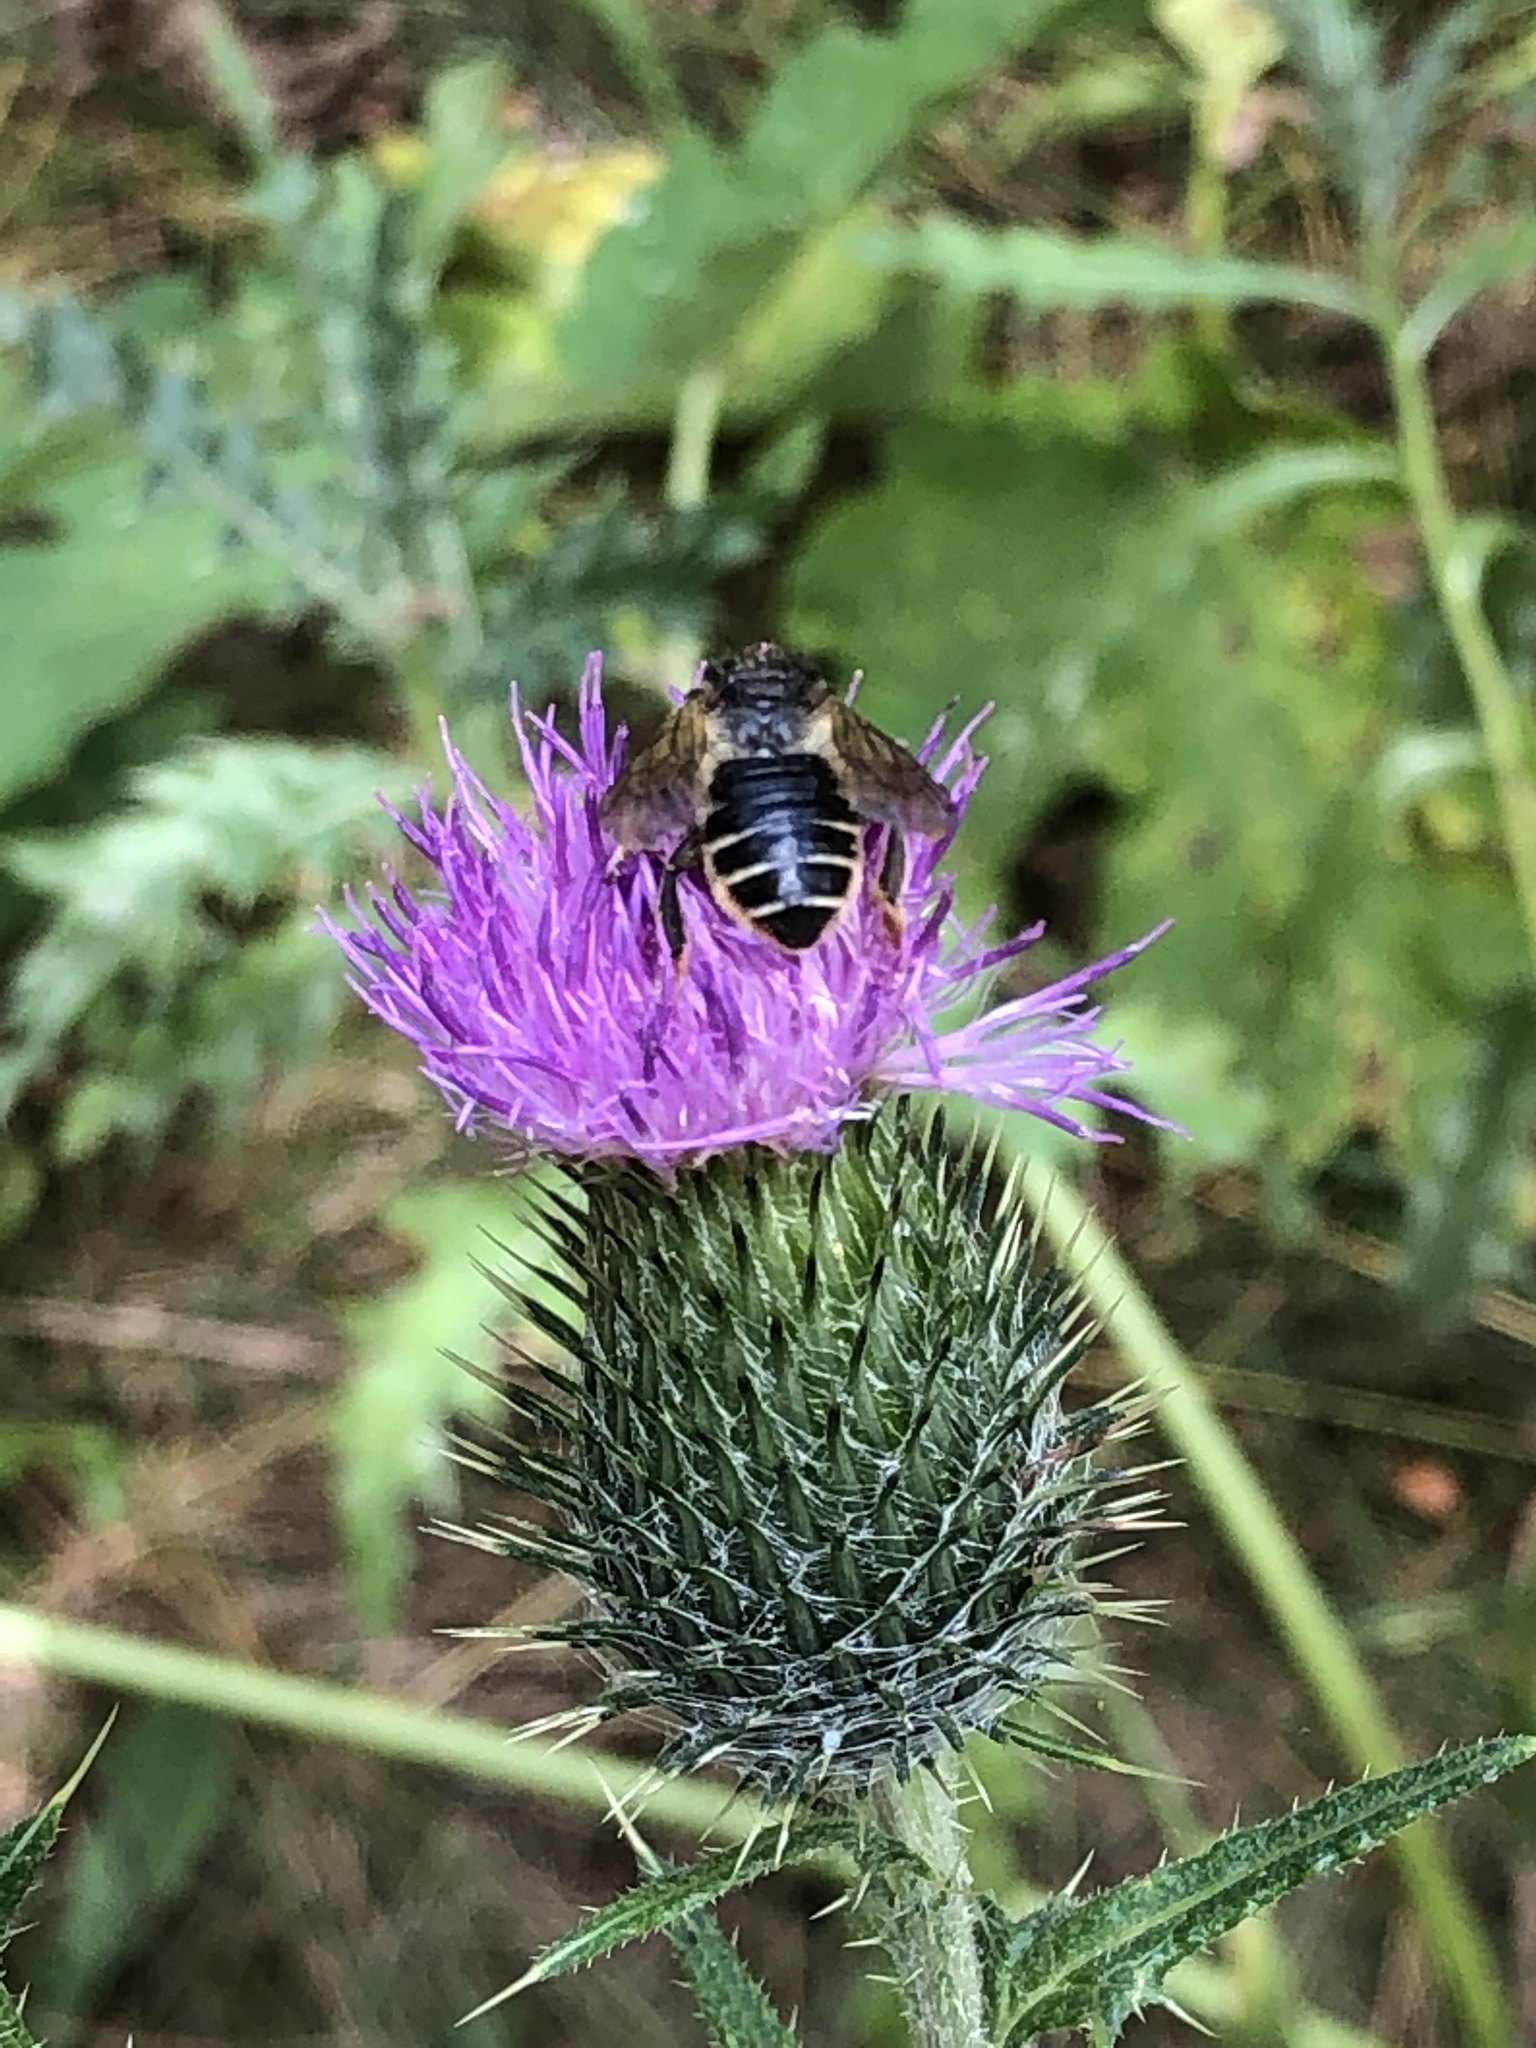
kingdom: Plantae
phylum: Tracheophyta
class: Magnoliopsida
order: Asterales
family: Asteraceae
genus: Cirsium
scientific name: Cirsium vulgare
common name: Bull thistle
